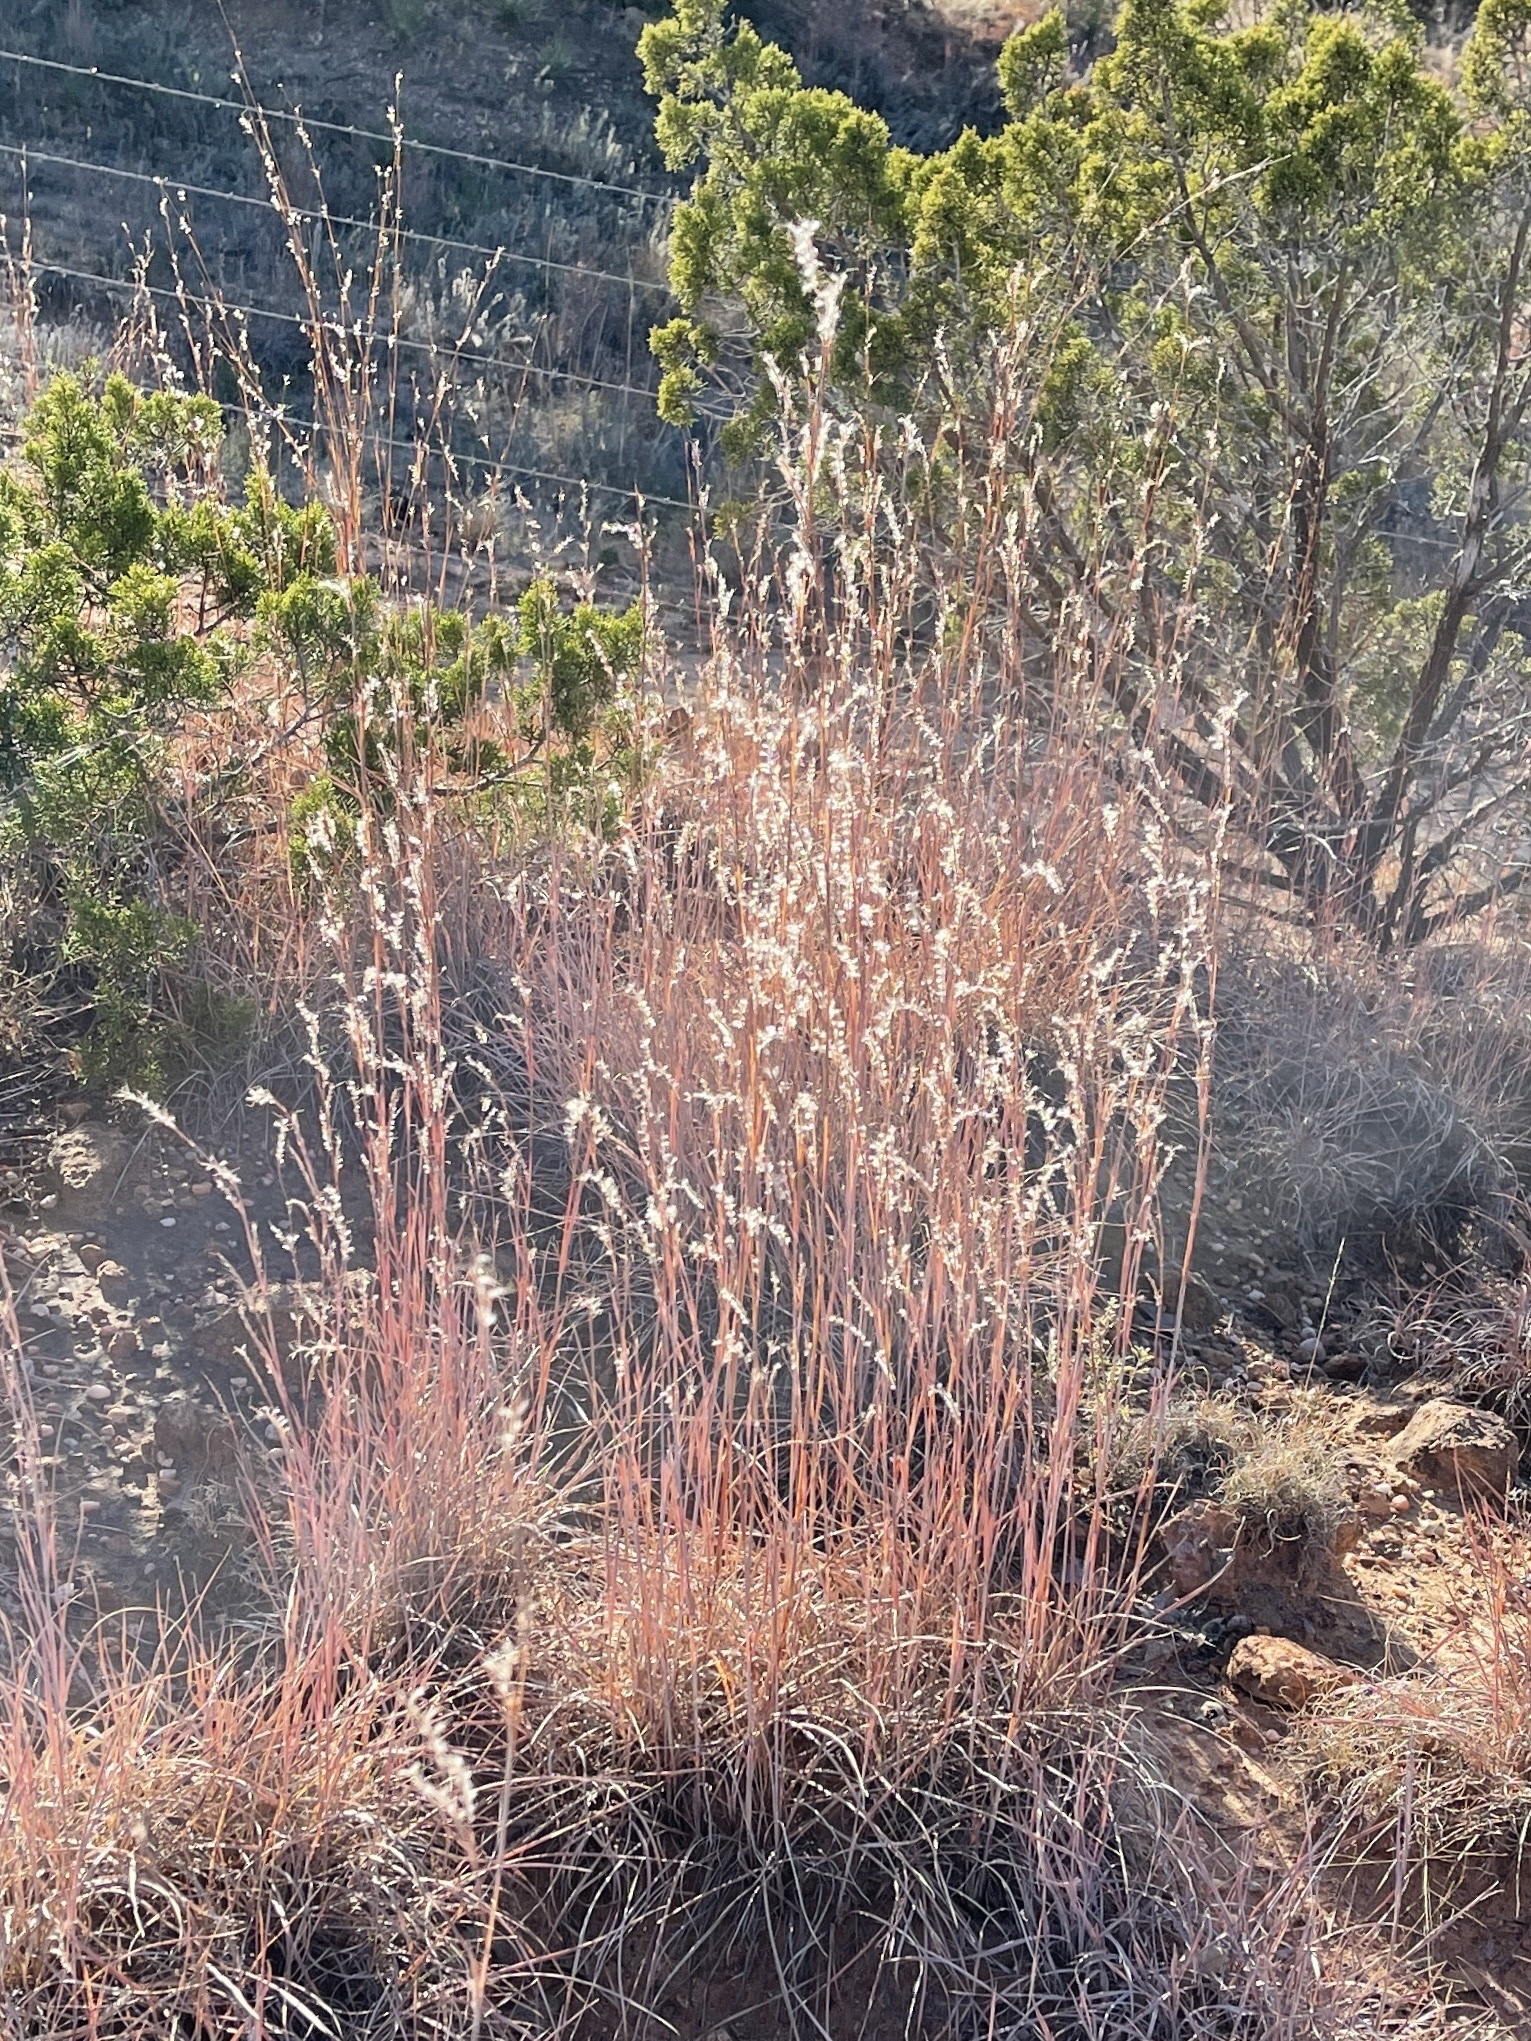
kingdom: Plantae
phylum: Tracheophyta
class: Liliopsida
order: Poales
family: Poaceae
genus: Schizachyrium
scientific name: Schizachyrium scoparium
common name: Little bluestem
